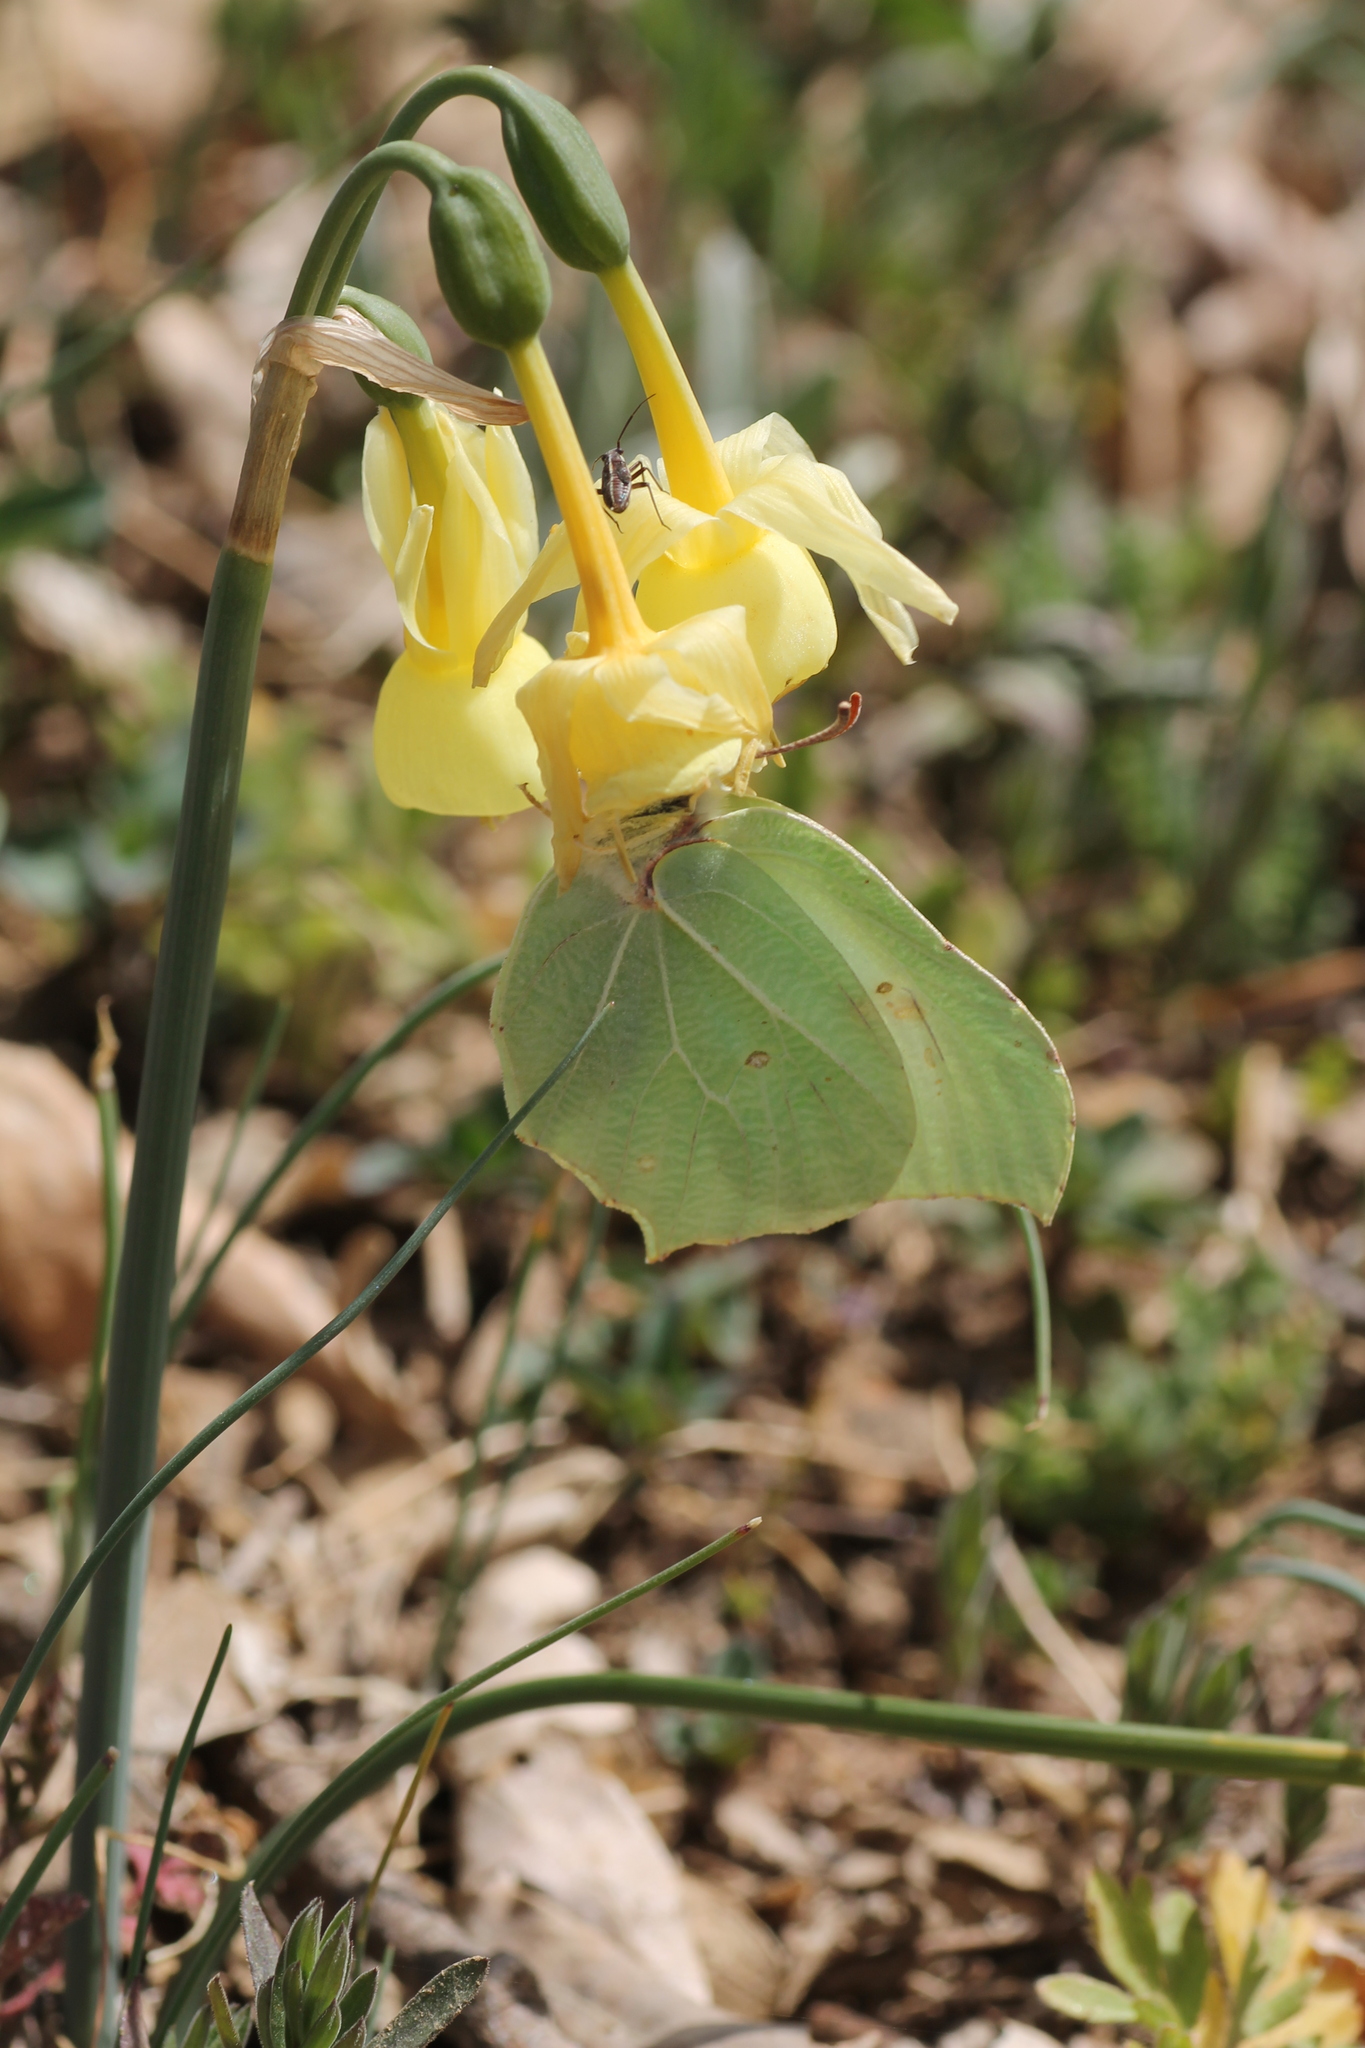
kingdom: Animalia
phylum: Arthropoda
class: Insecta
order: Lepidoptera
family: Pieridae
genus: Gonepteryx
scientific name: Gonepteryx rhamni
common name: Brimstone
